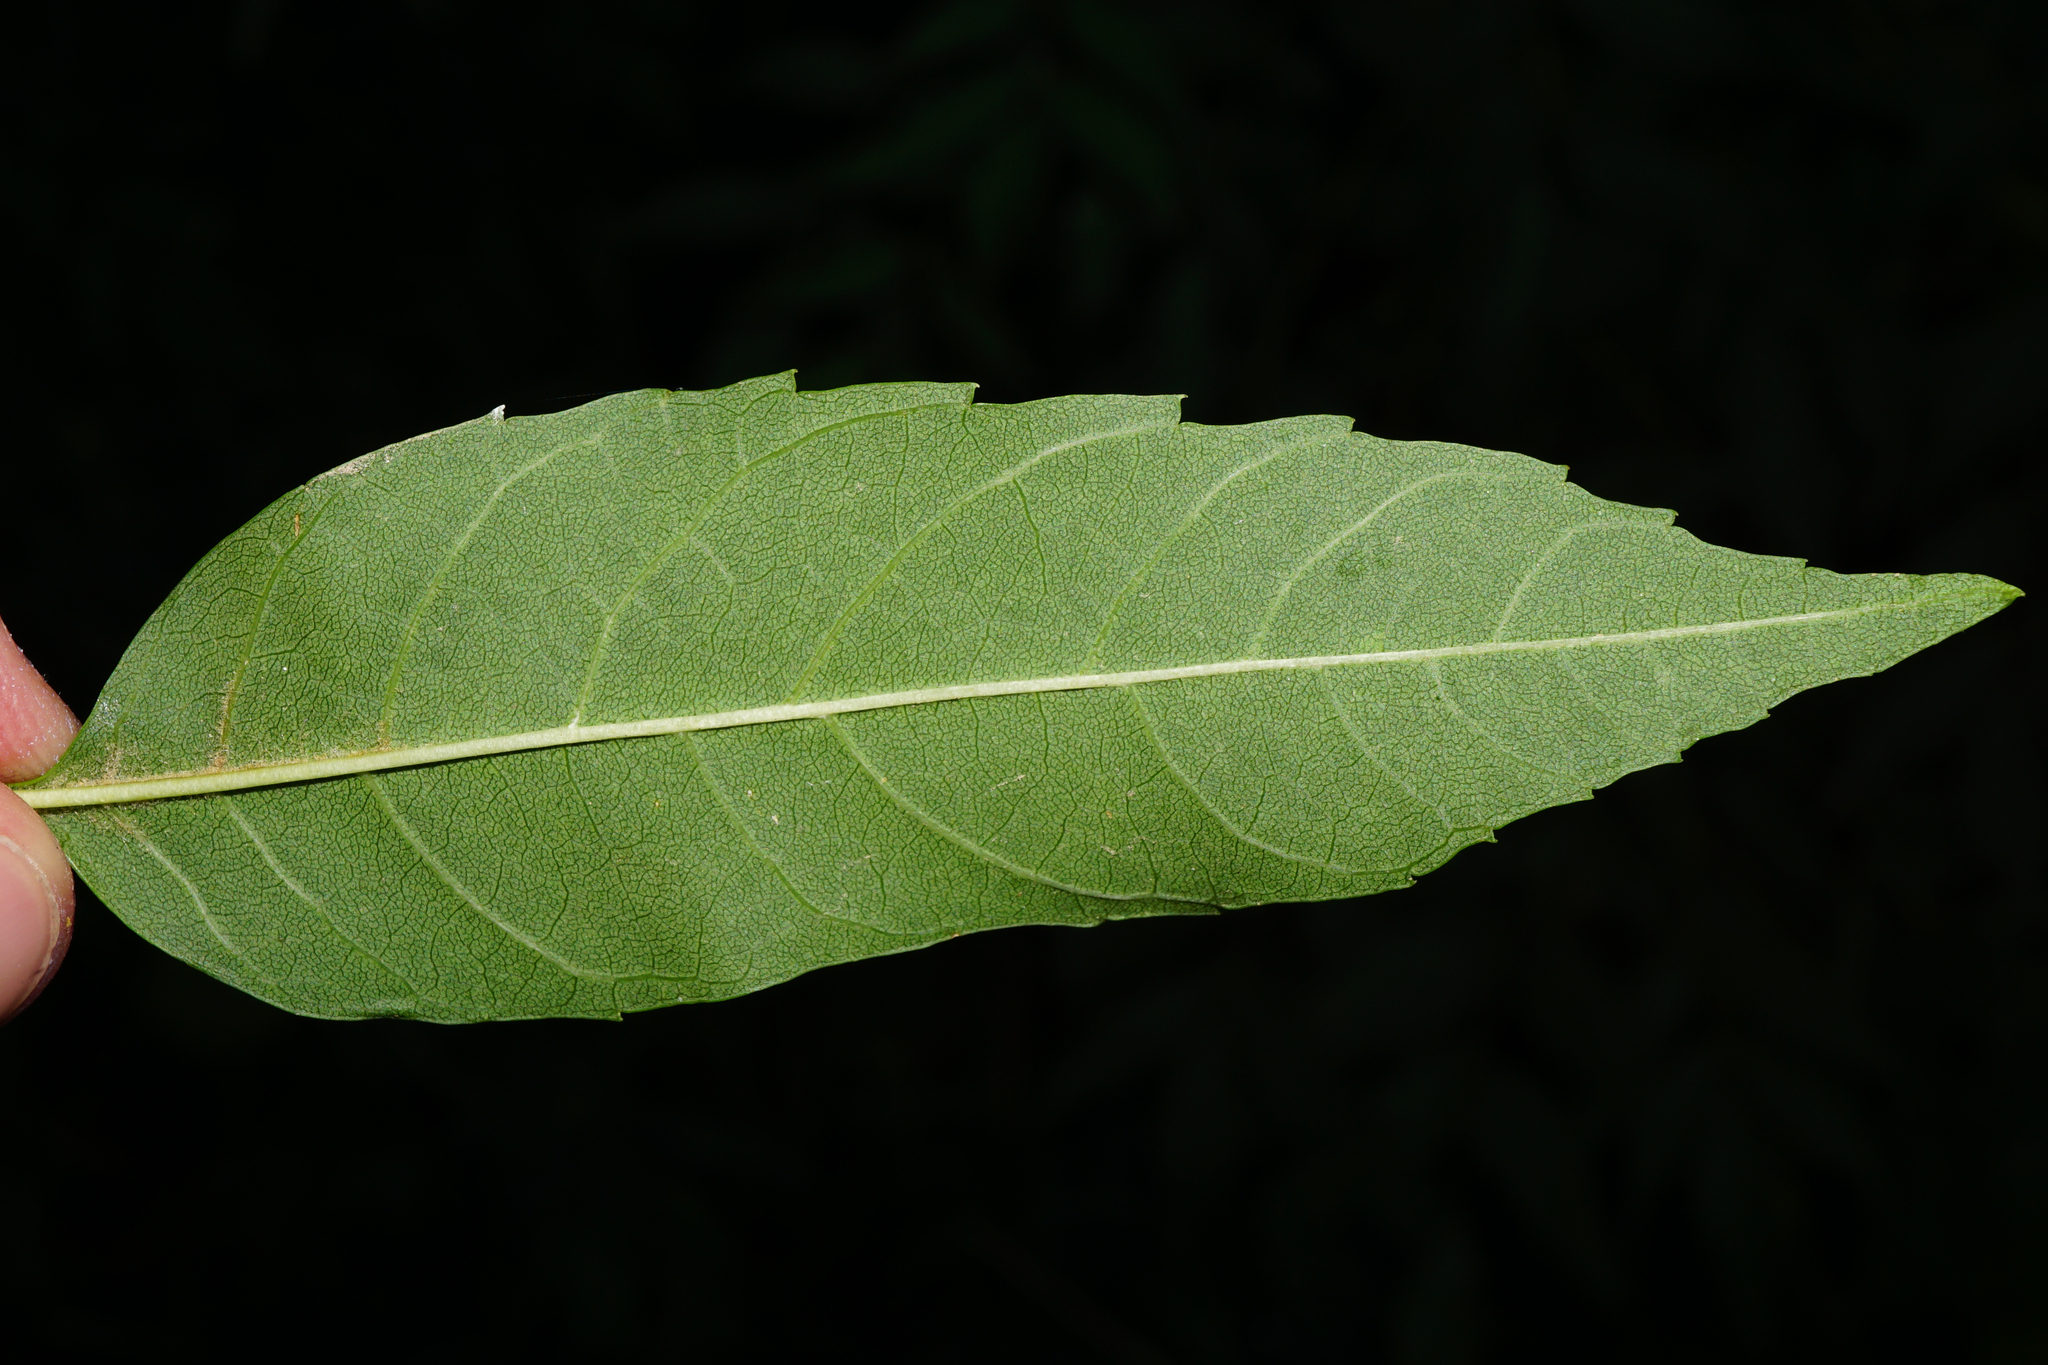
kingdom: Plantae
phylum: Tracheophyta
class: Magnoliopsida
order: Lamiales
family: Oleaceae
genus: Fraxinus
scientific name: Fraxinus angustifolia
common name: Narrow-leafed ash
